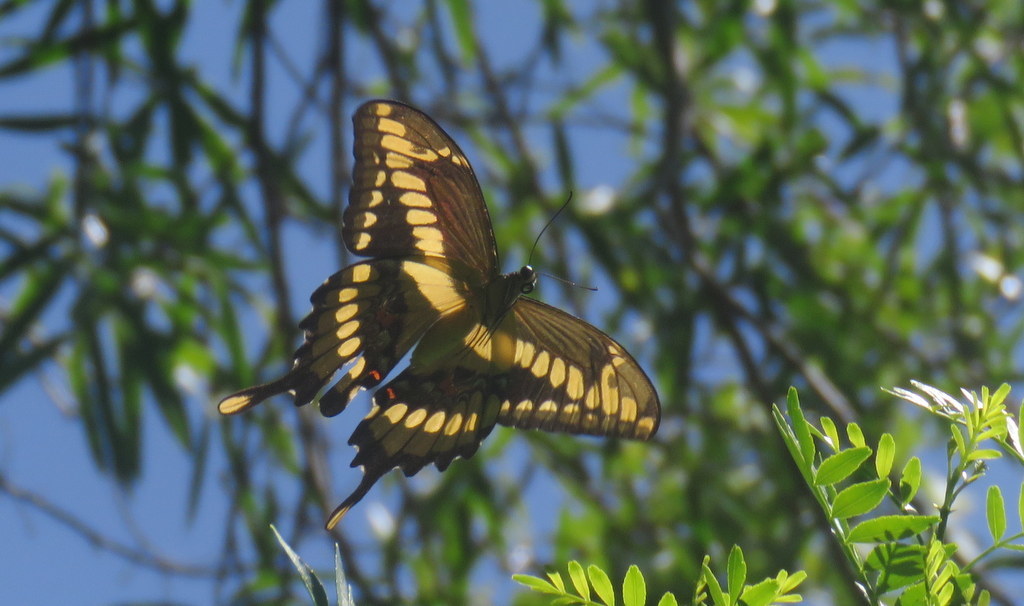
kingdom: Animalia
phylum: Arthropoda
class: Insecta
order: Lepidoptera
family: Papilionidae
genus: Papilio
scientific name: Papilio thoas
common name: King swallowtail
